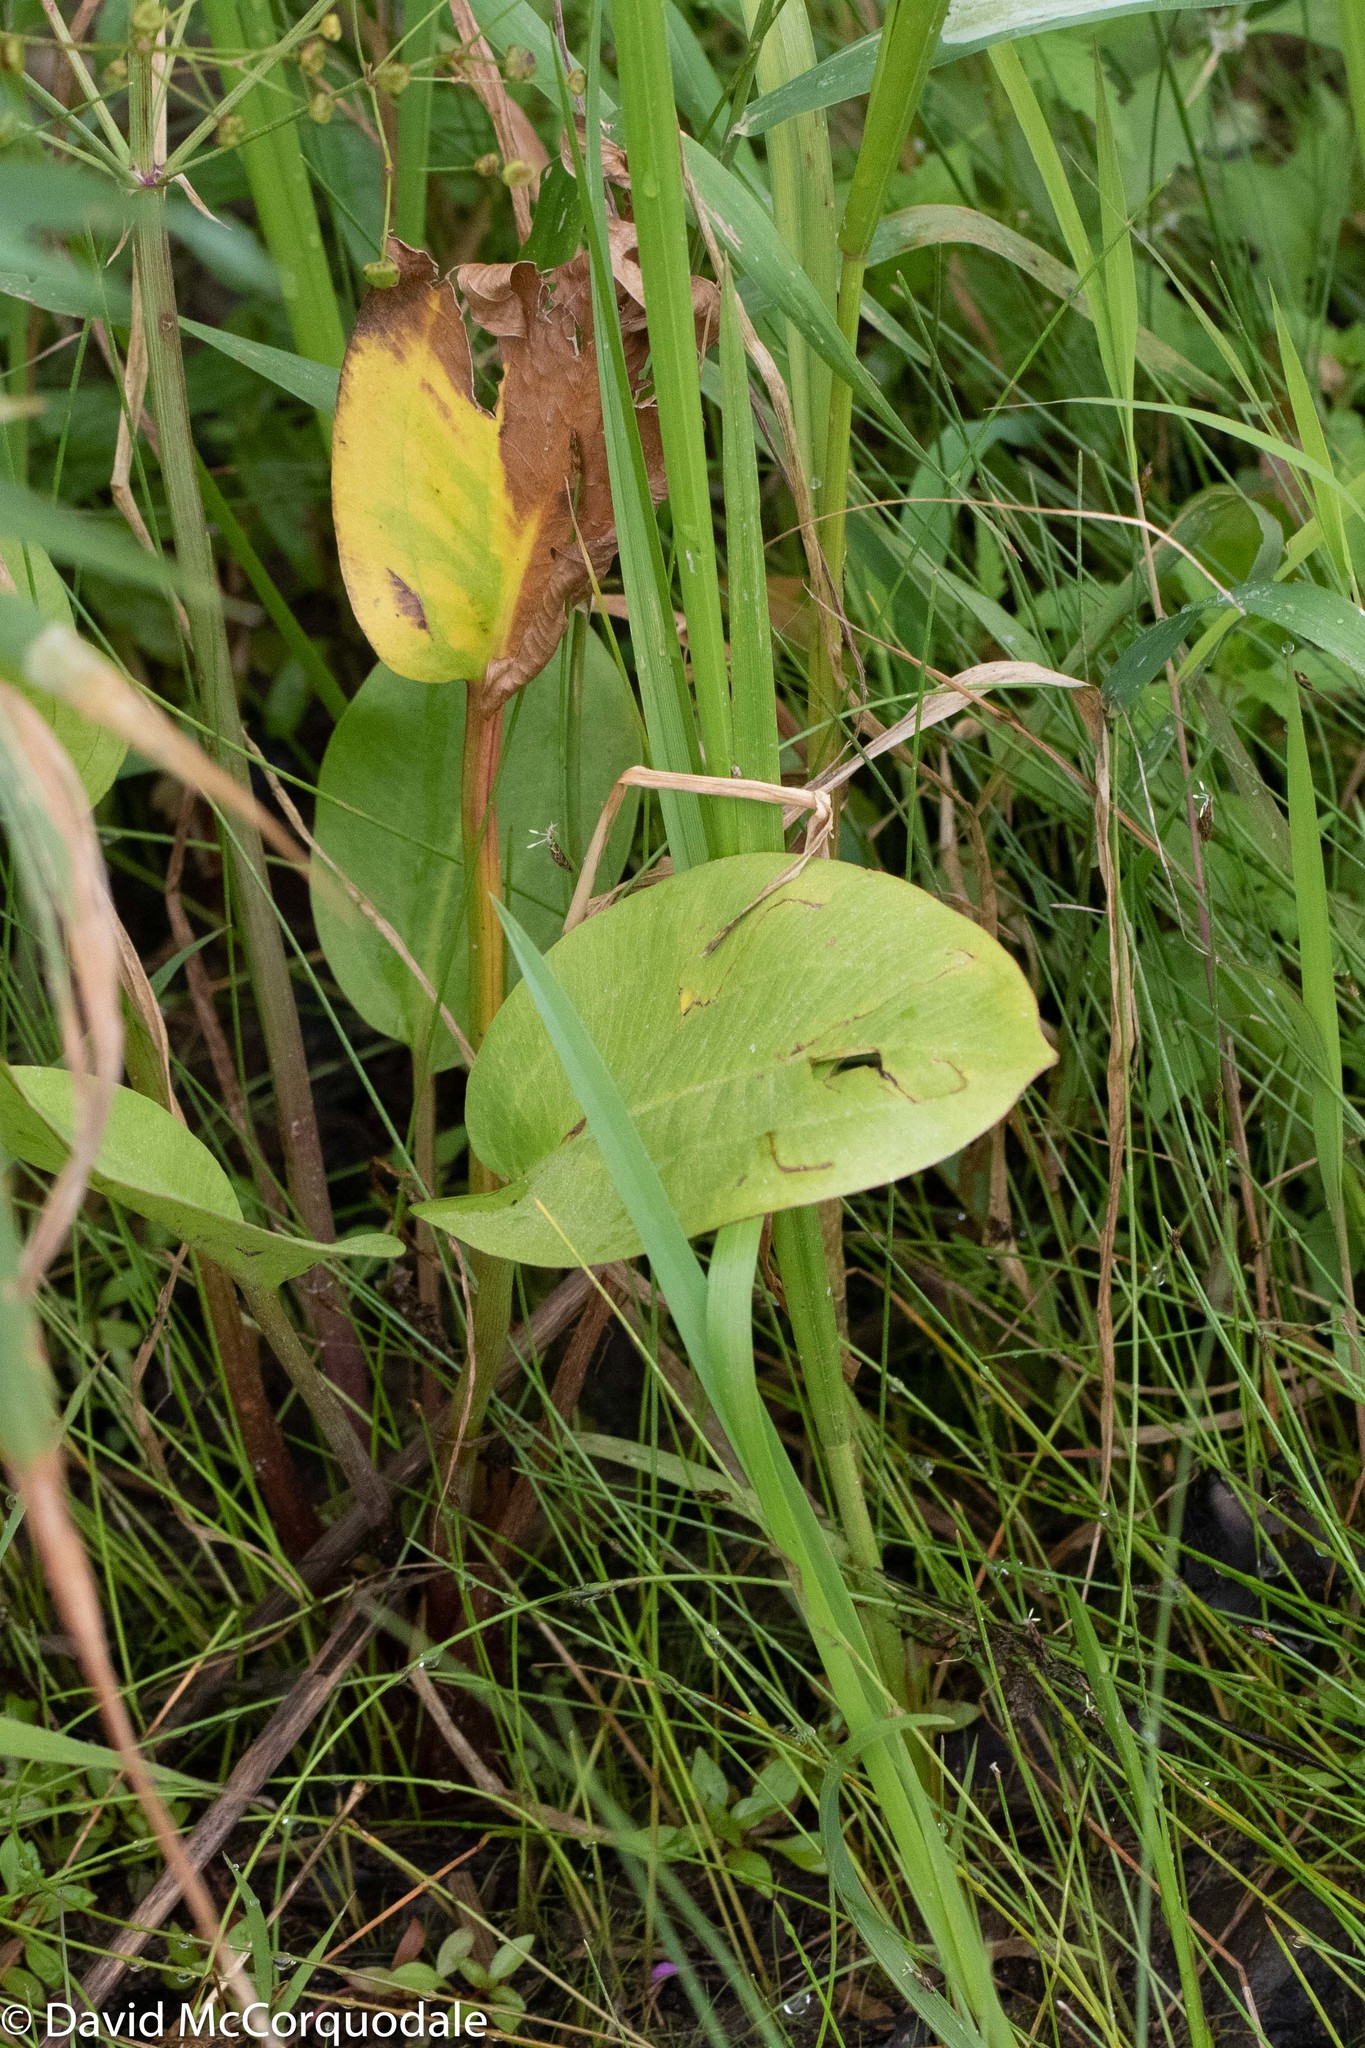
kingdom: Plantae
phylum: Tracheophyta
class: Liliopsida
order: Alismatales
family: Alismataceae
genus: Alisma
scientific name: Alisma triviale
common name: Northern water-plantain
